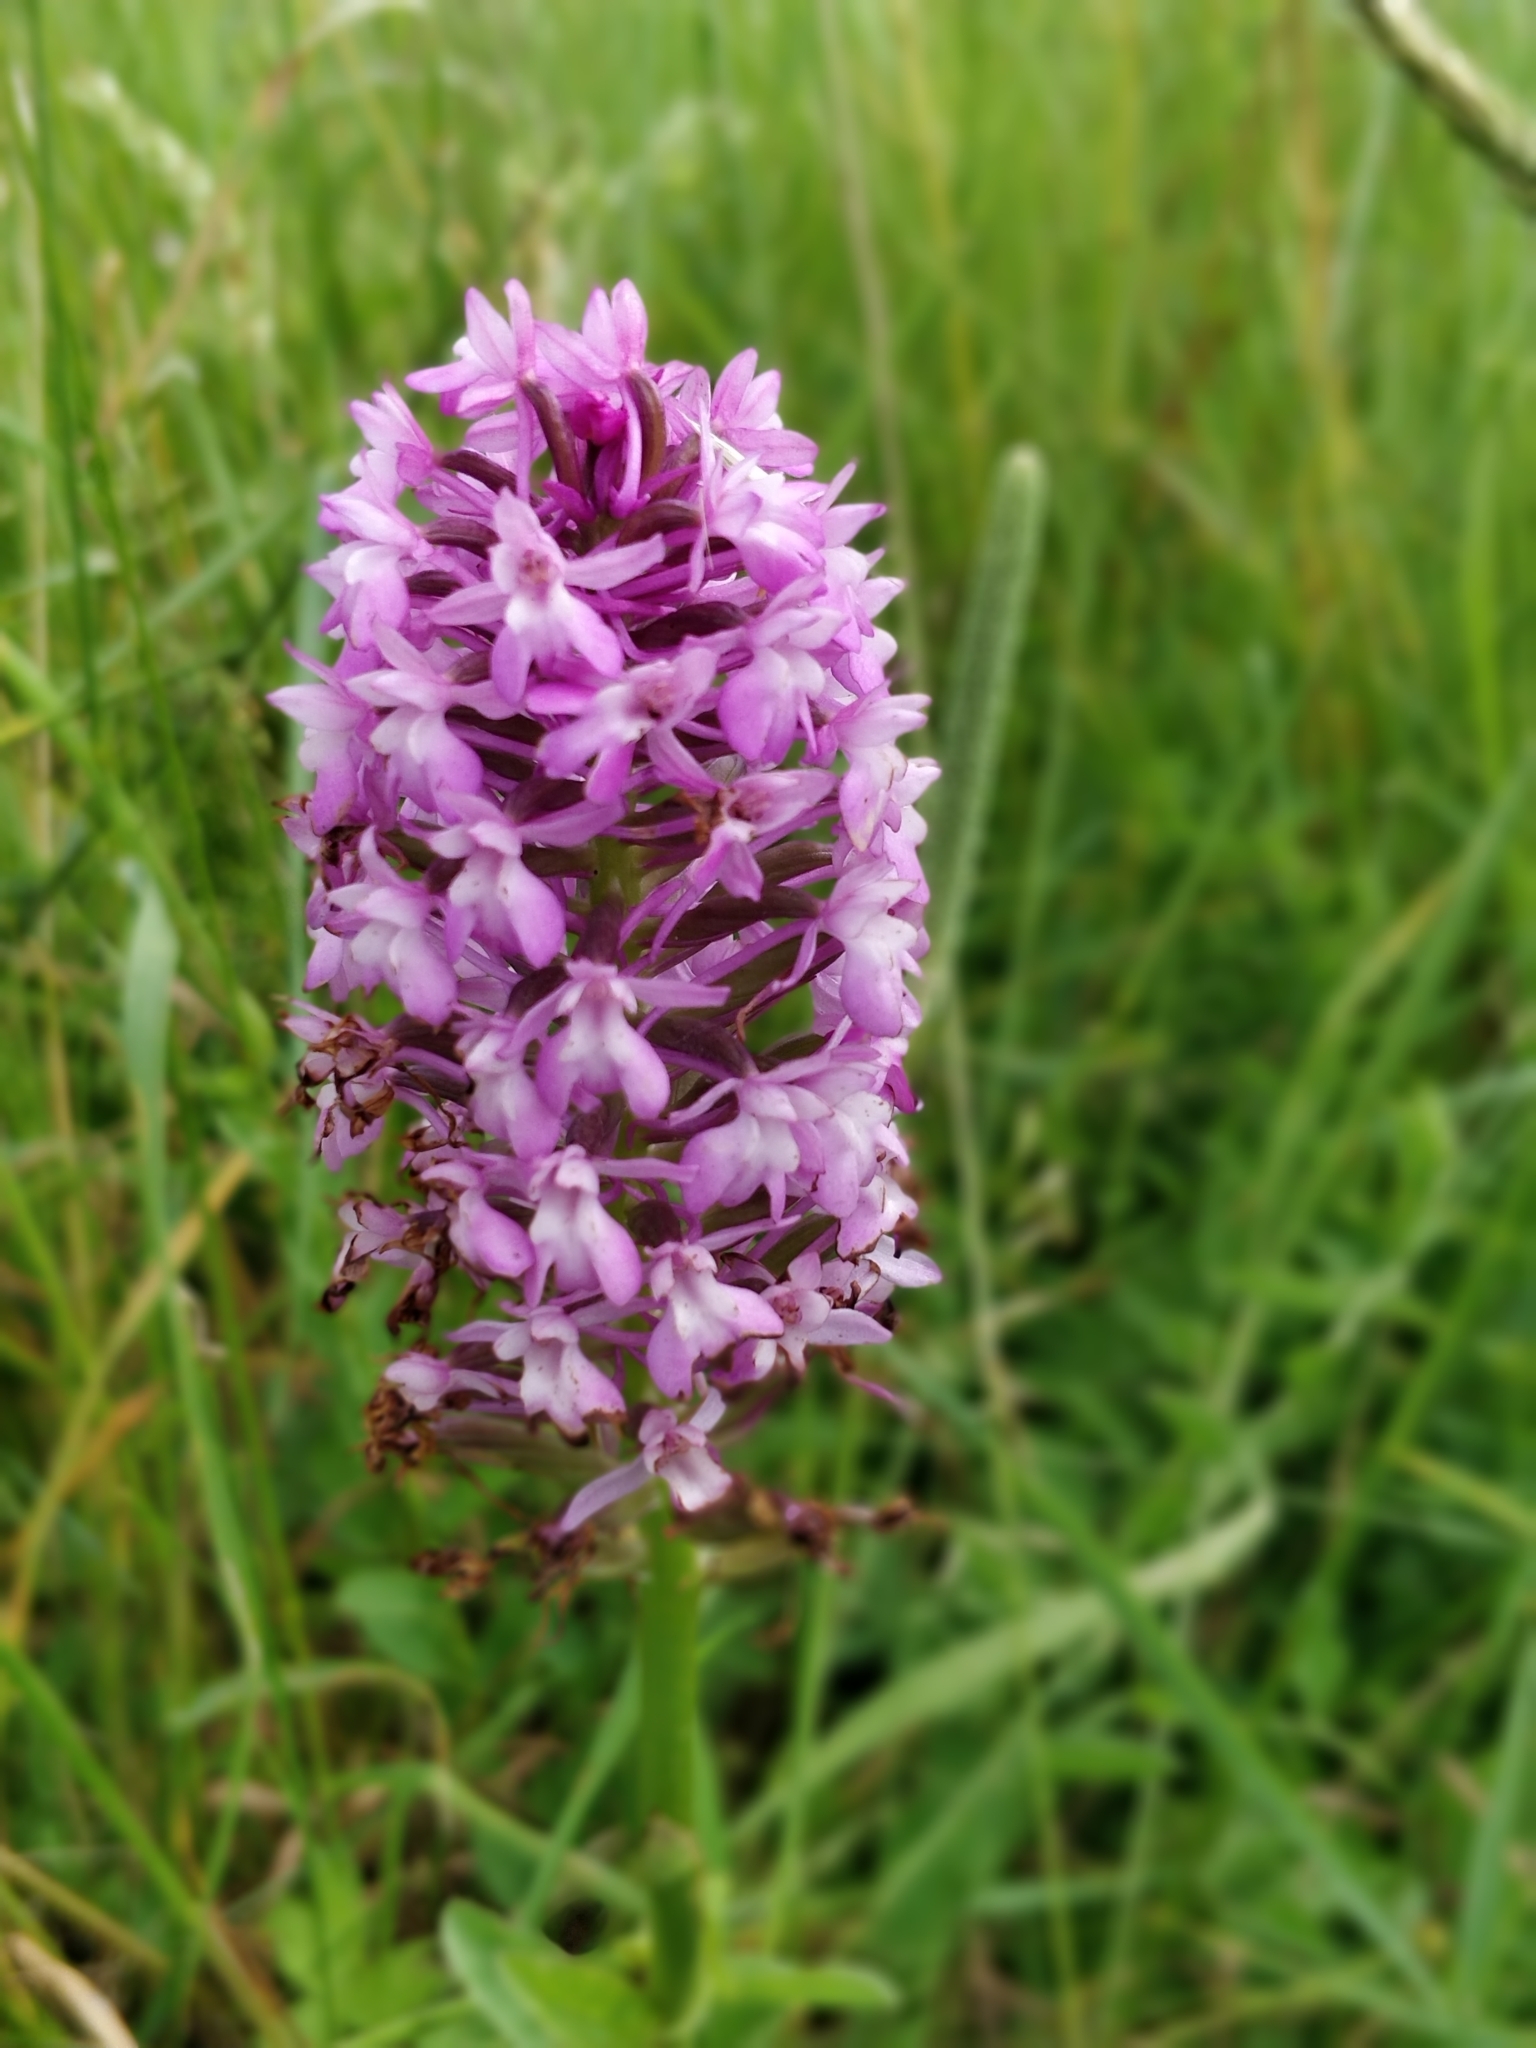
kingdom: Plantae
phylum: Tracheophyta
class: Liliopsida
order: Asparagales
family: Orchidaceae
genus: Anacamptis
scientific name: Anacamptis pyramidalis
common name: Pyramidal orchid
